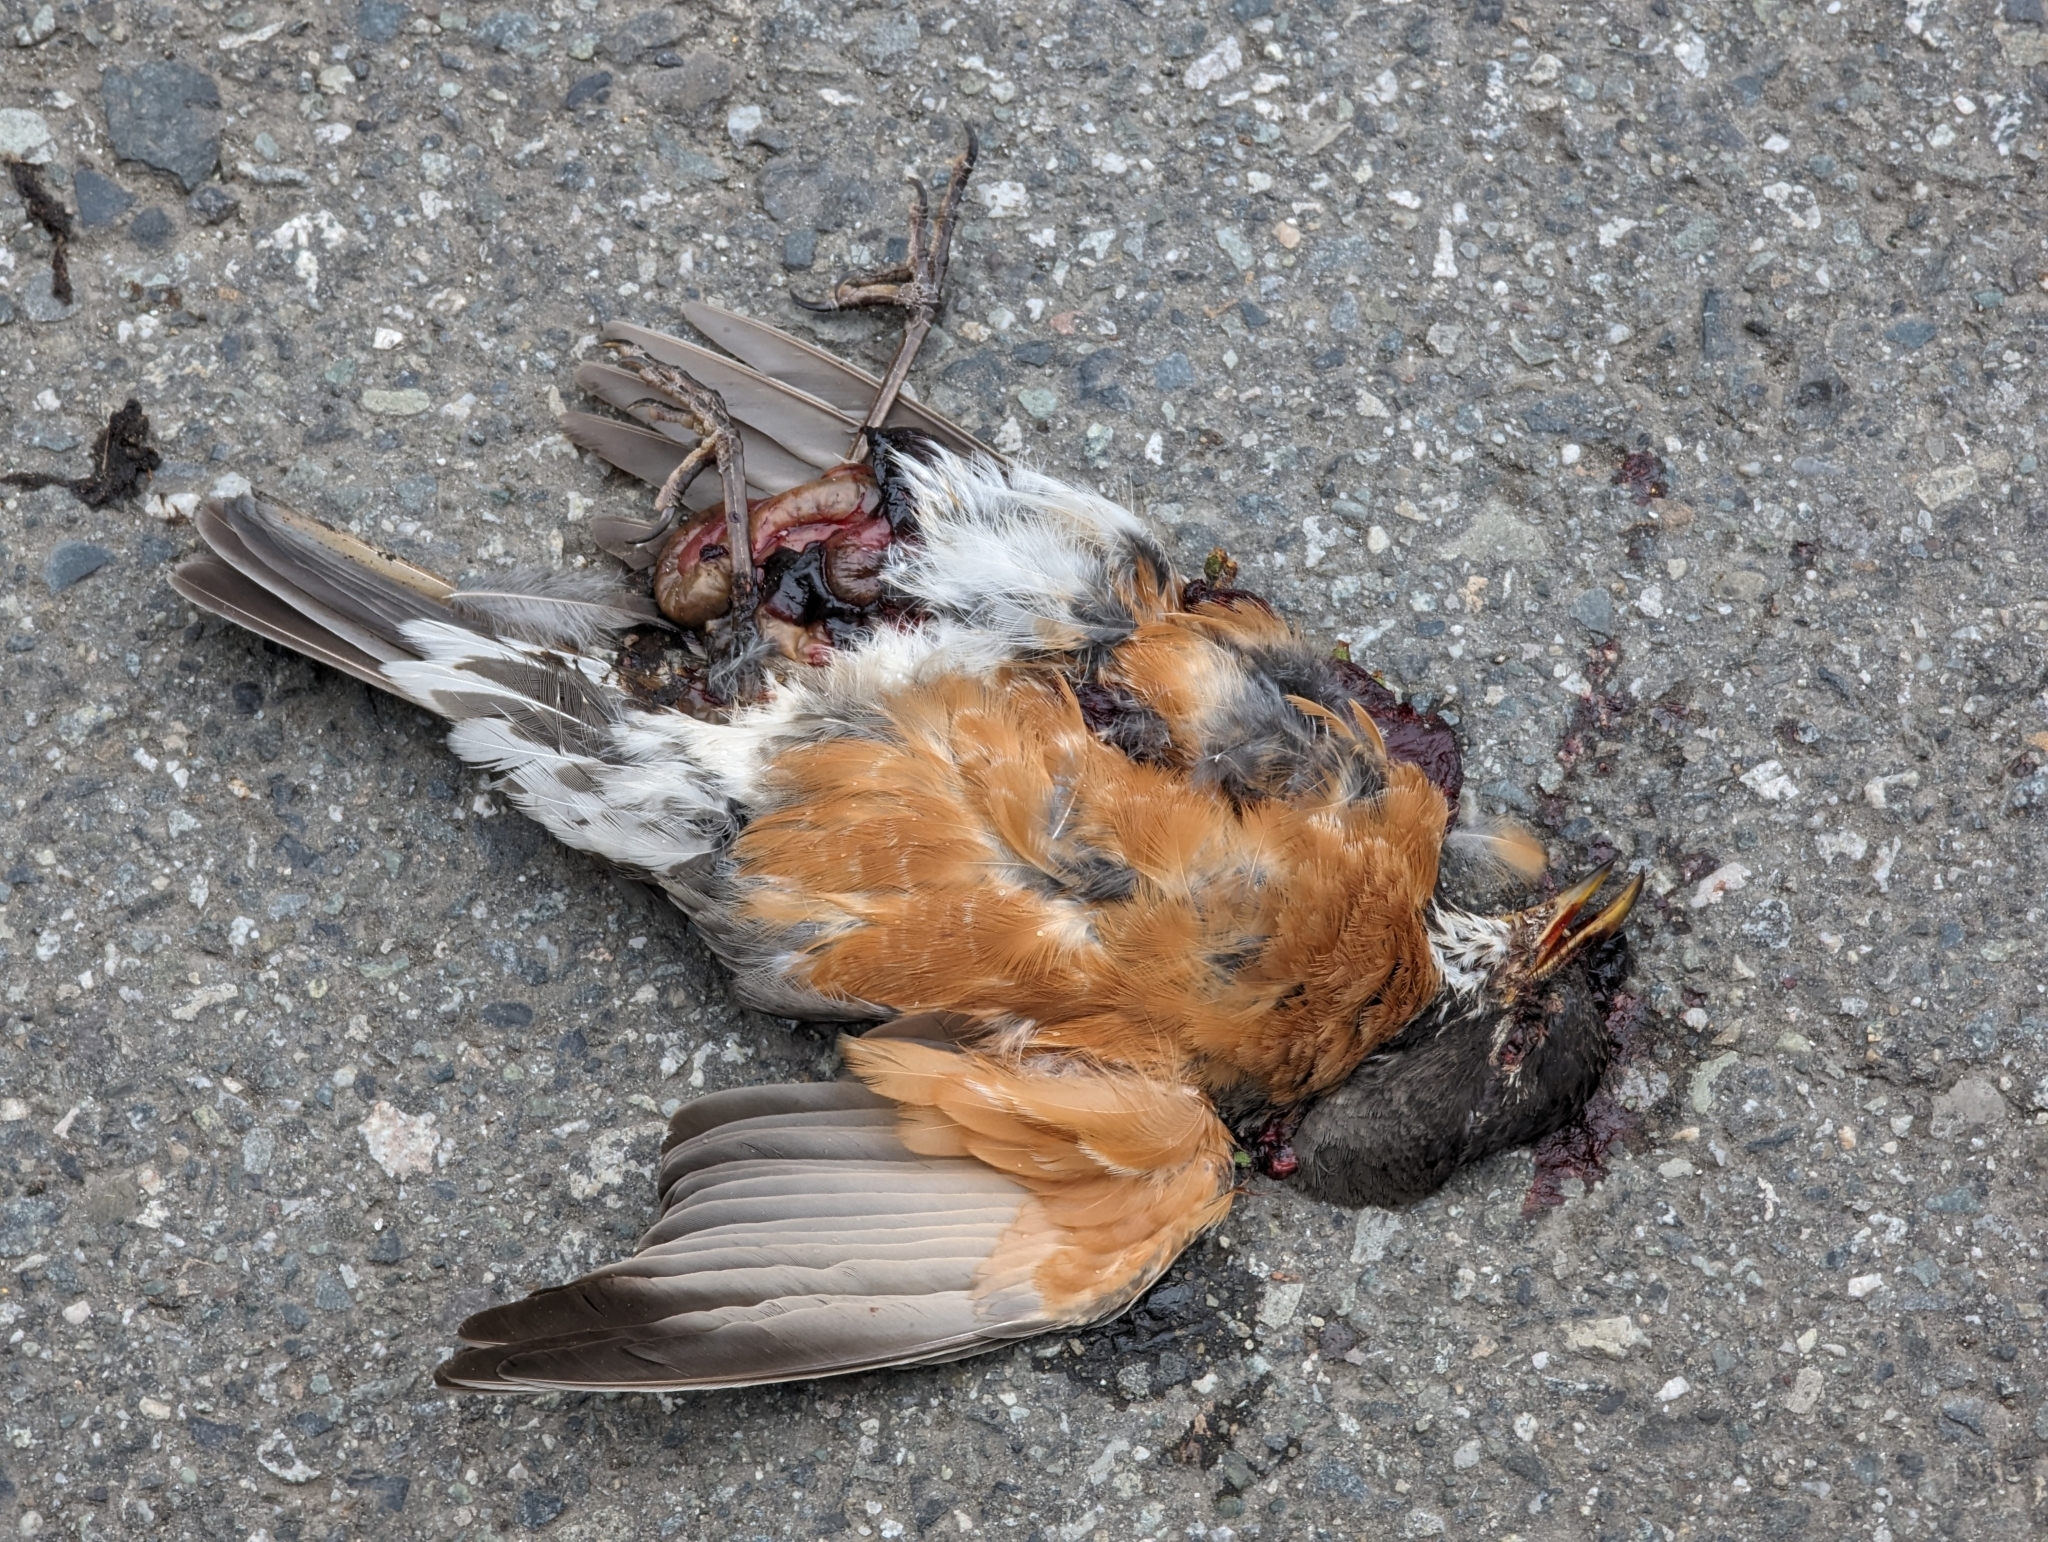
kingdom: Animalia
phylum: Chordata
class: Aves
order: Passeriformes
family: Turdidae
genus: Turdus
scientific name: Turdus migratorius
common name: American robin
